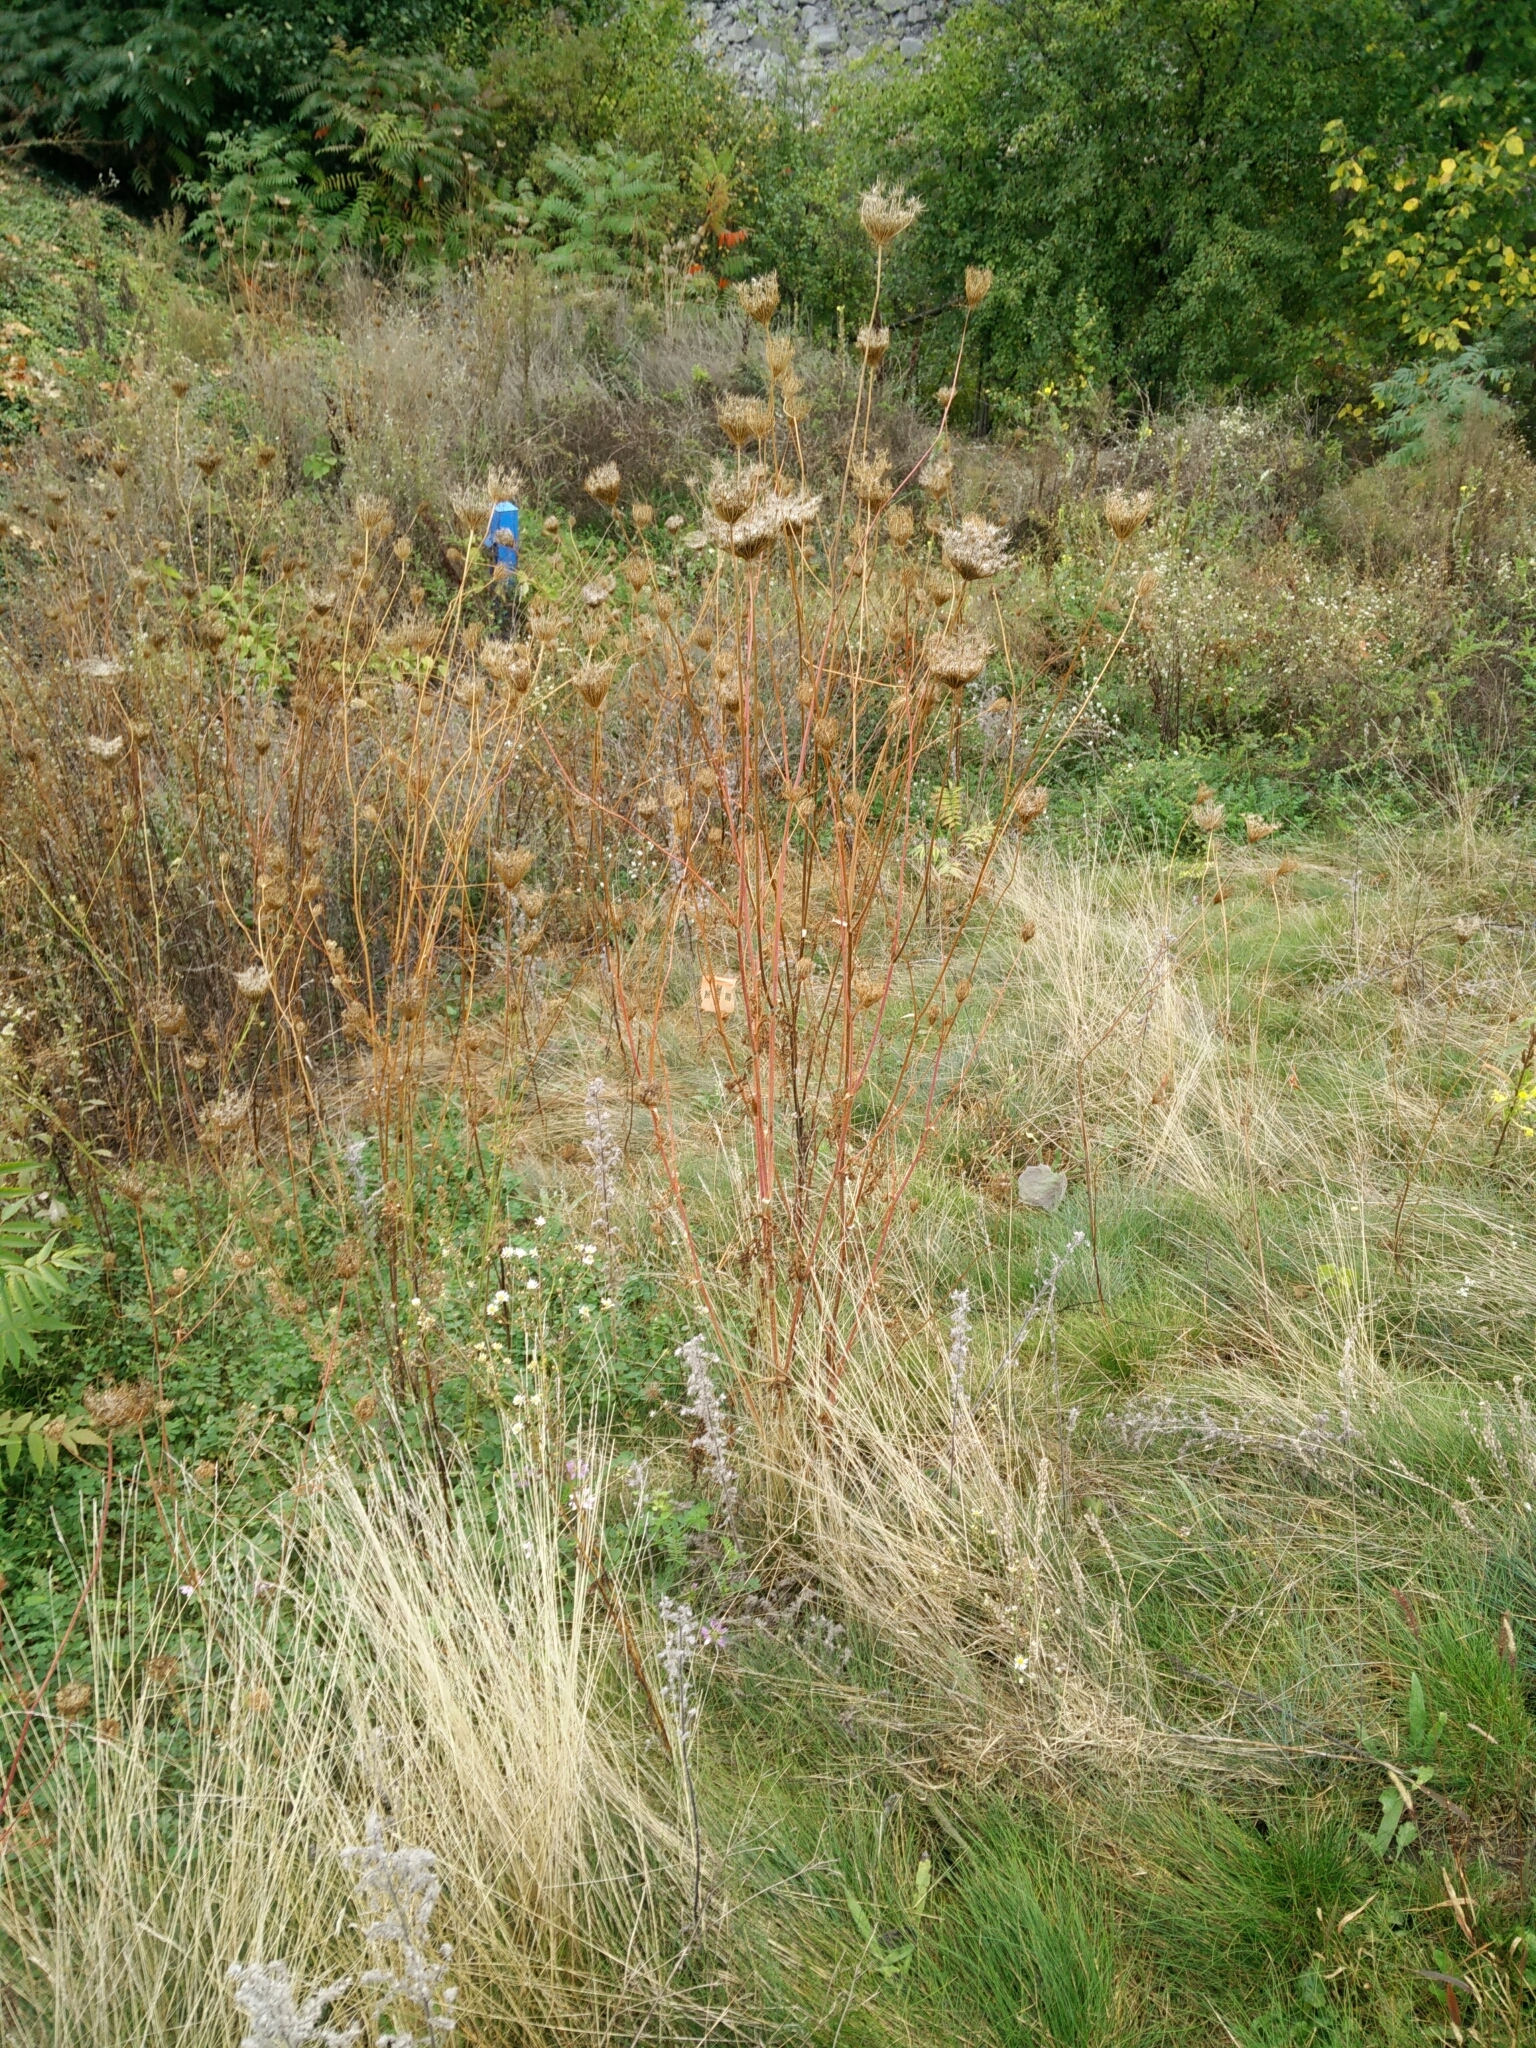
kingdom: Plantae
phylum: Tracheophyta
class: Magnoliopsida
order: Apiales
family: Apiaceae
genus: Daucus
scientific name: Daucus carota
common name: Wild carrot
